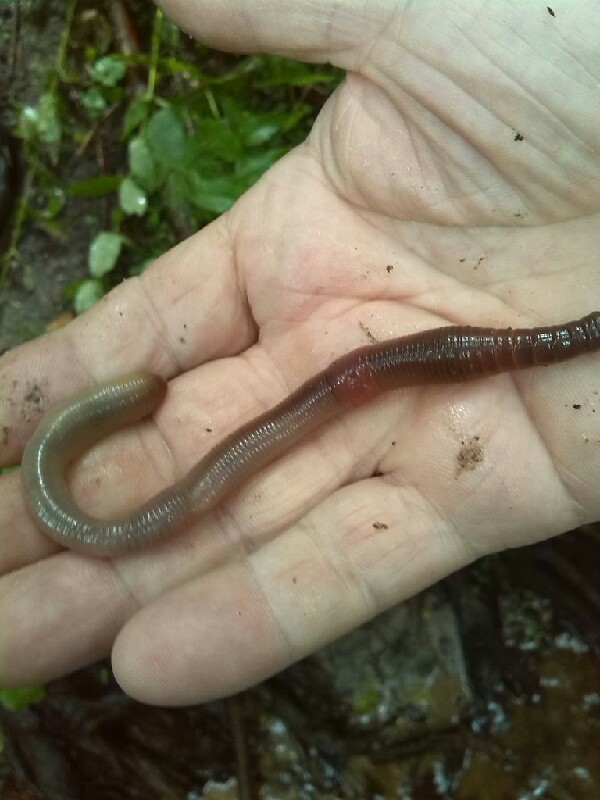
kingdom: Animalia
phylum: Annelida
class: Clitellata
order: Crassiclitellata
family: Lumbricidae
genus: Lumbricus
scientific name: Lumbricus terrestris
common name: Common earthworm
